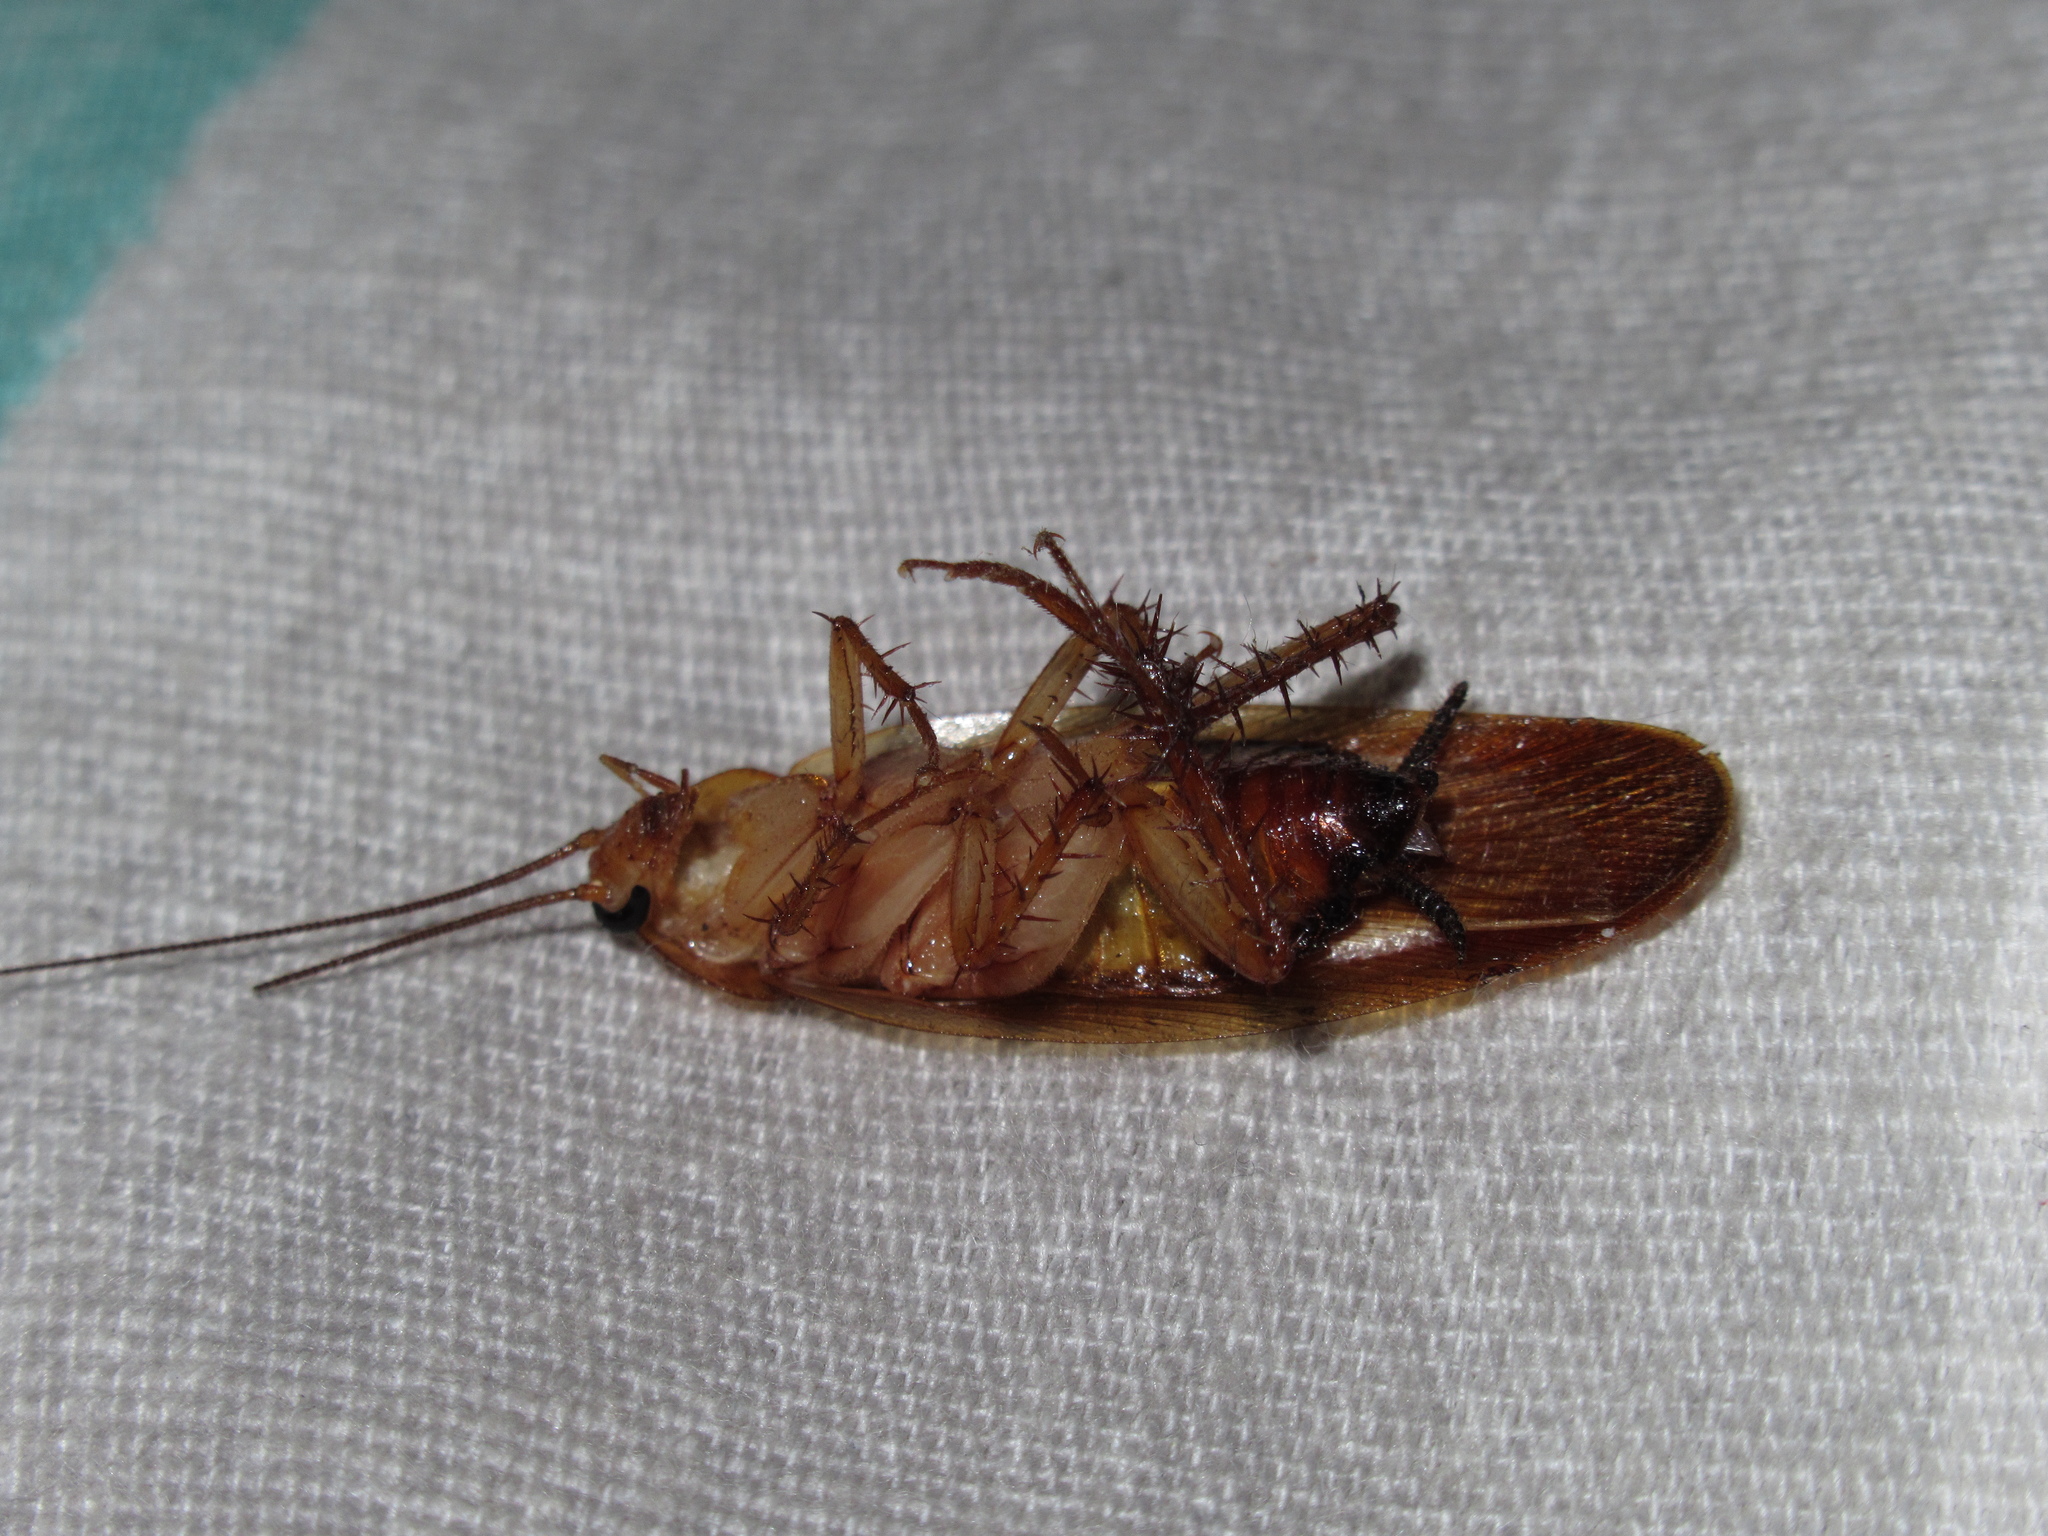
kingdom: Animalia
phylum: Arthropoda
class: Insecta
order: Blattodea
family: Ectobiidae
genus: Neotemnopteryx
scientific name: Neotemnopteryx fulva
